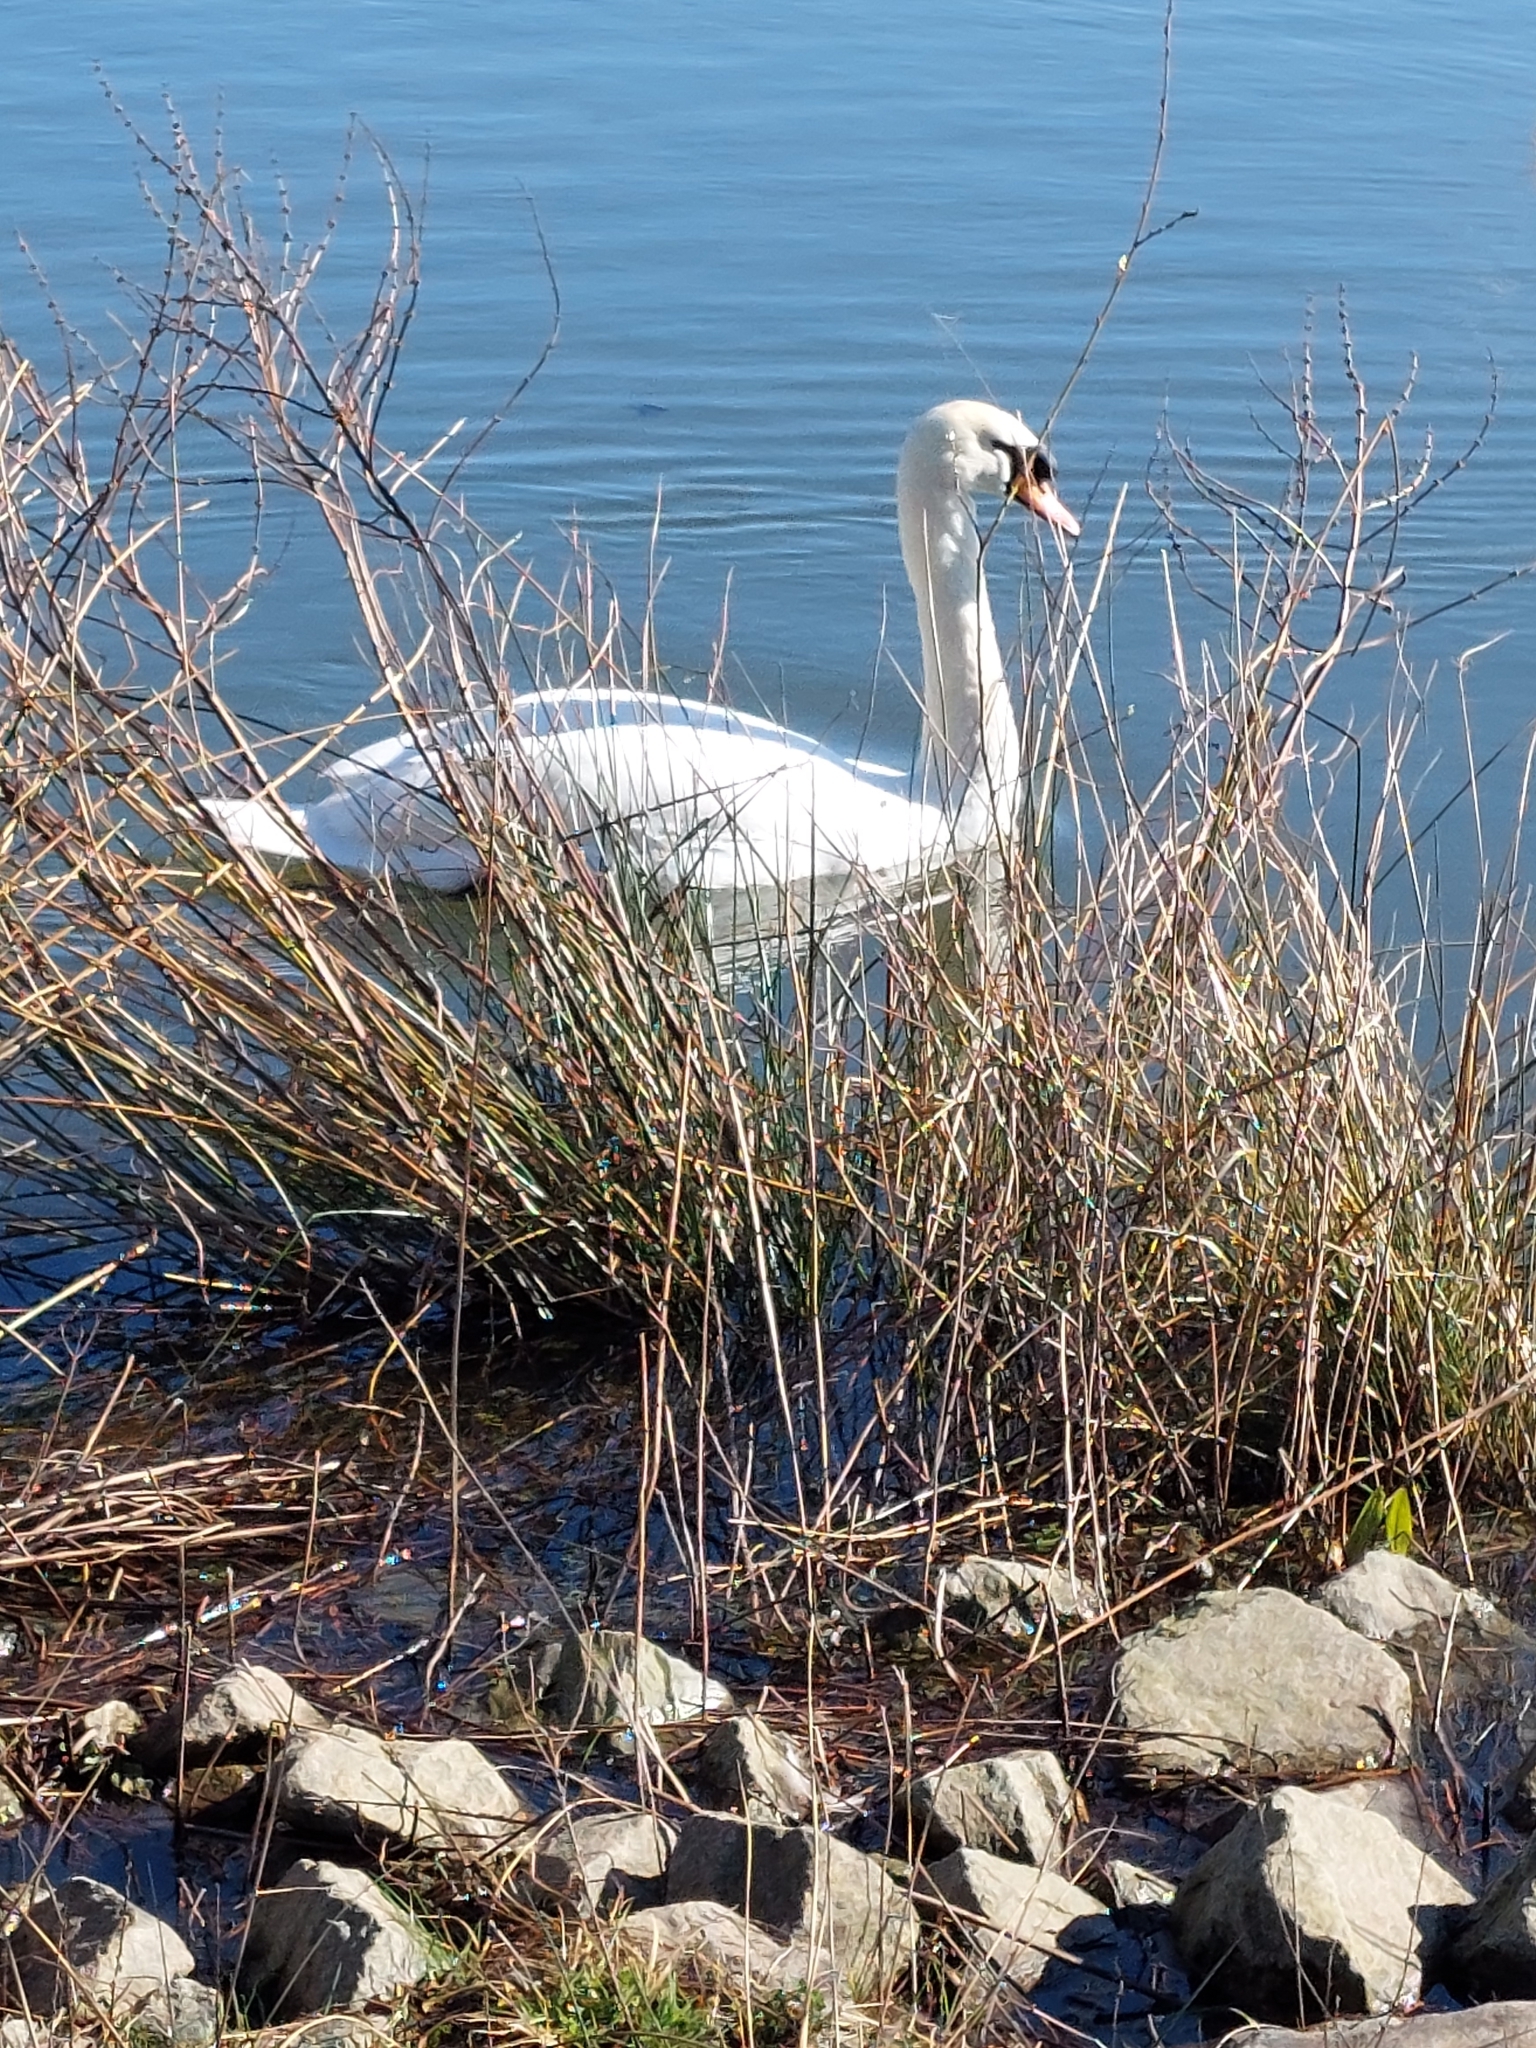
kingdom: Animalia
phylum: Chordata
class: Aves
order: Anseriformes
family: Anatidae
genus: Cygnus
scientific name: Cygnus olor
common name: Mute swan
